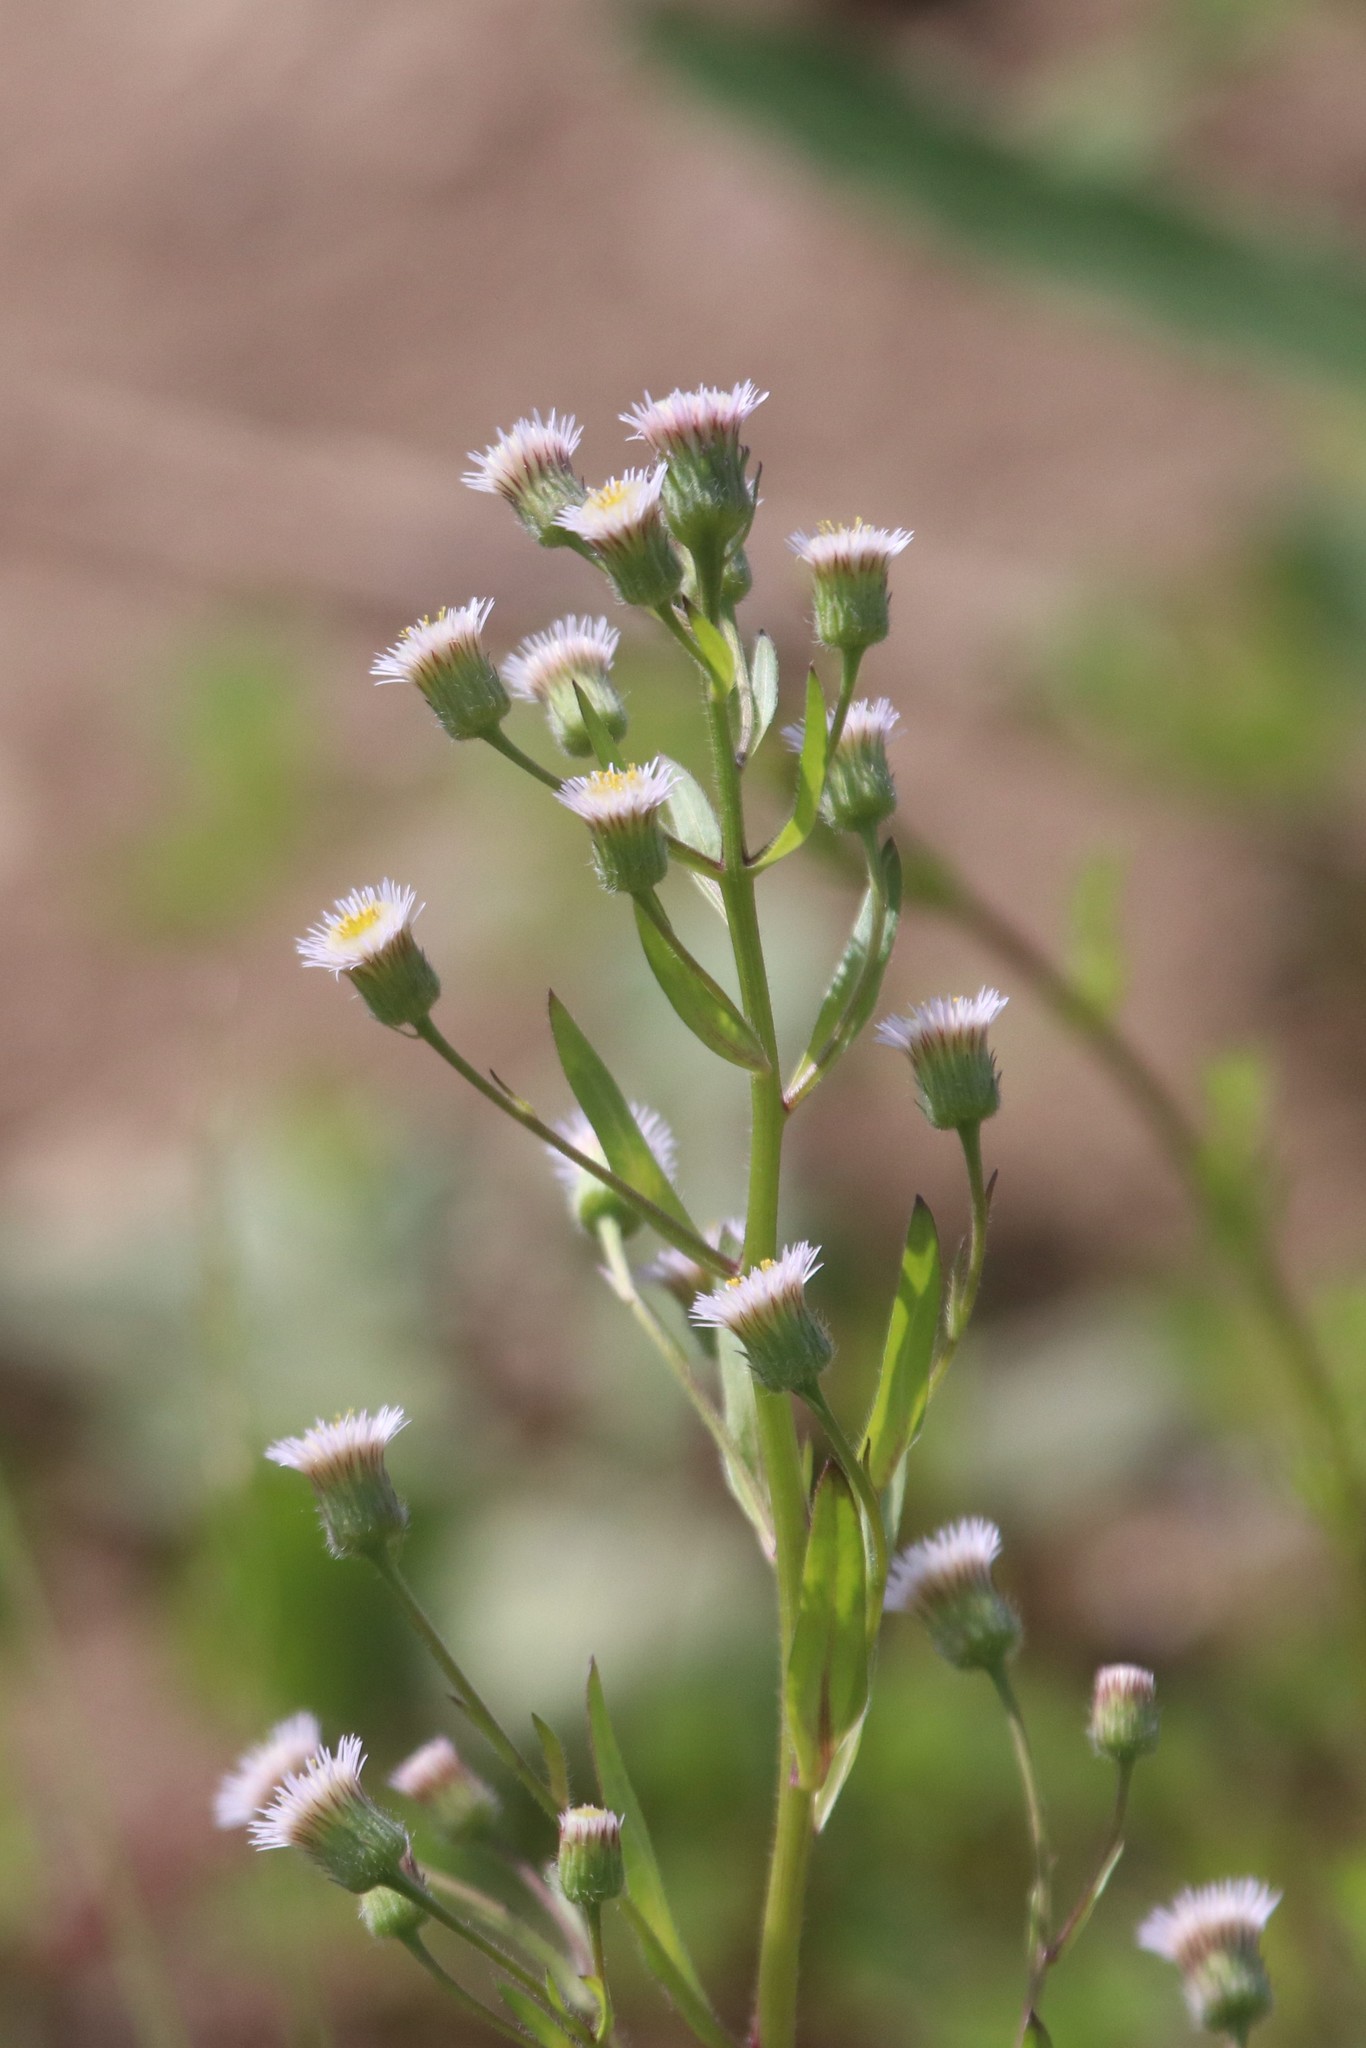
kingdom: Plantae
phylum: Tracheophyta
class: Magnoliopsida
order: Asterales
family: Asteraceae
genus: Erigeron
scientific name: Erigeron acris
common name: Blue fleabane
